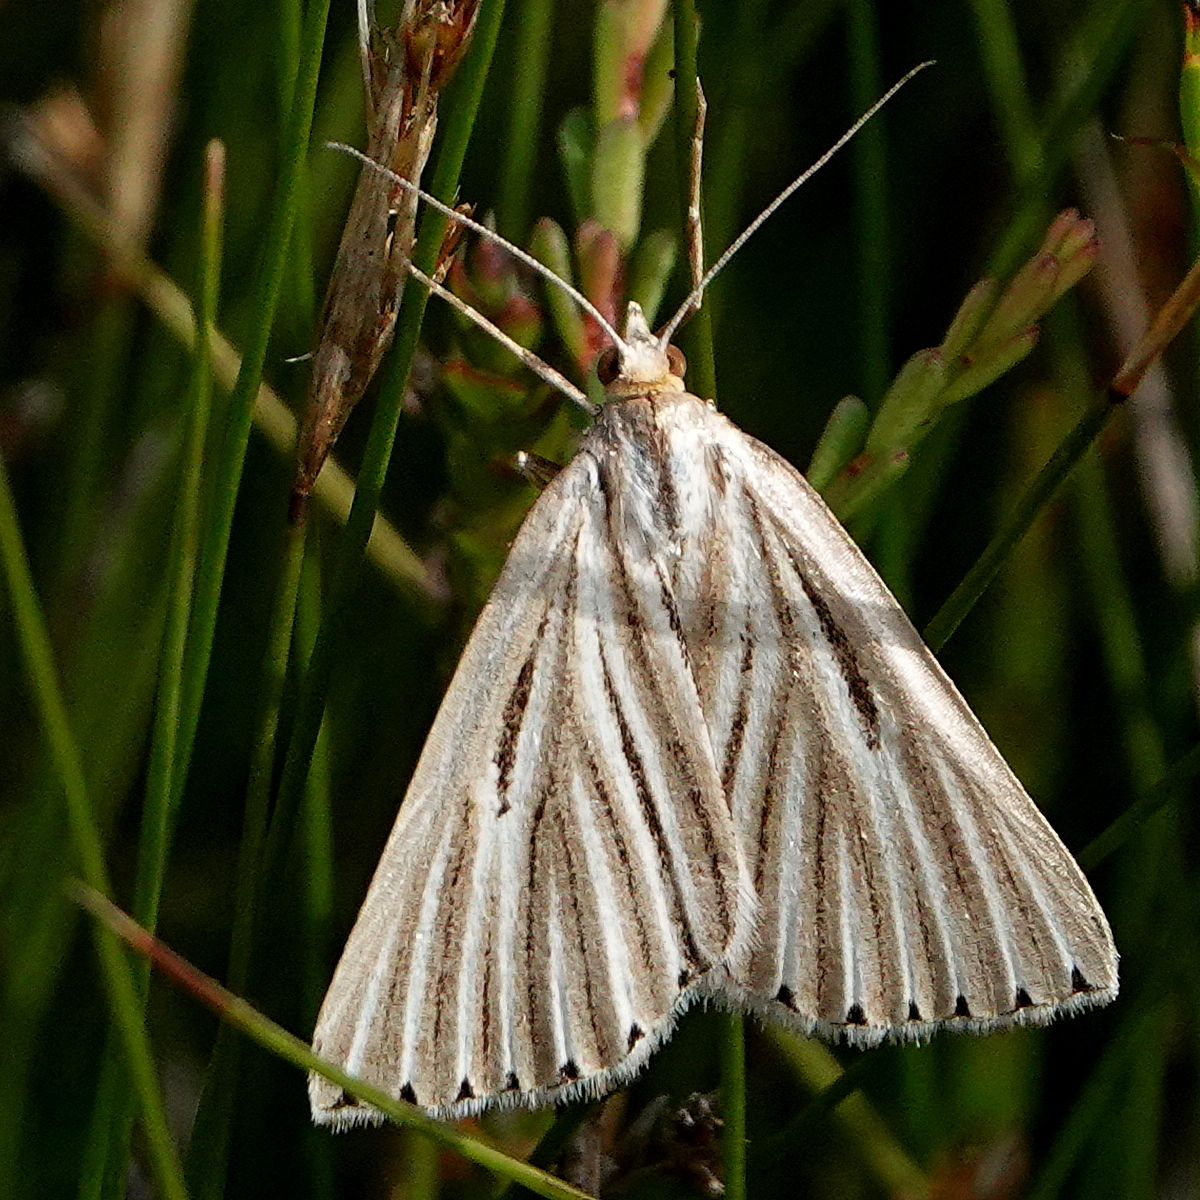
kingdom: Animalia
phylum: Arthropoda
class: Insecta
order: Lepidoptera
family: Geometridae
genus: Amelora
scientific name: Amelora leucaniata
